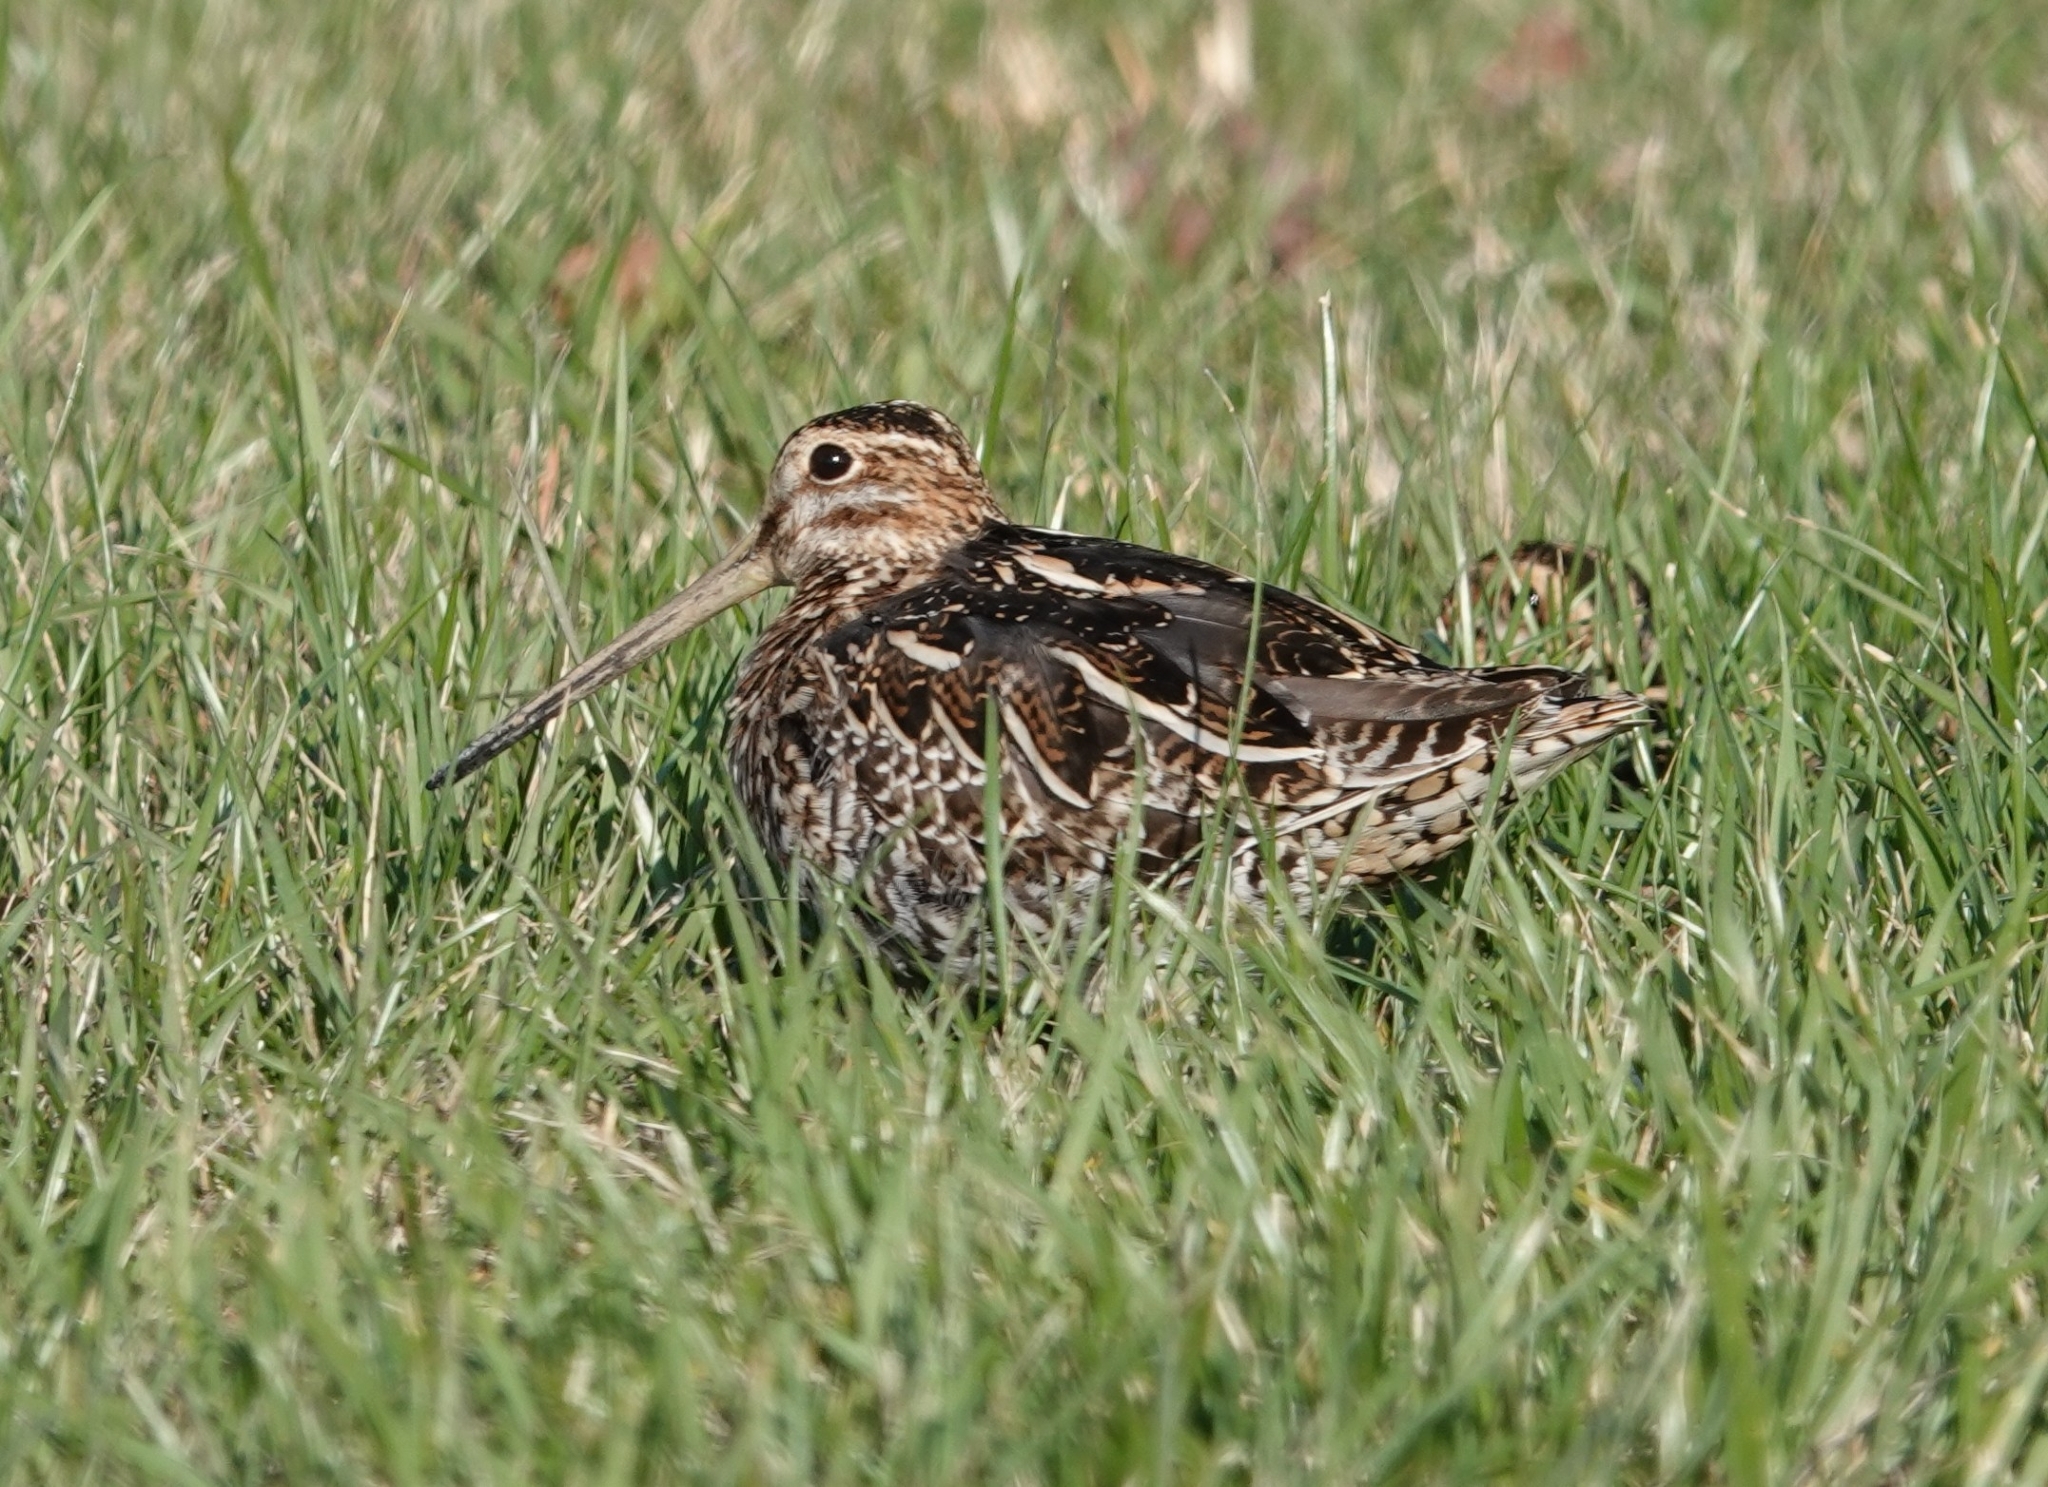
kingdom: Animalia
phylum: Chordata
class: Aves
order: Charadriiformes
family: Scolopacidae
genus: Gallinago
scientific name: Gallinago delicata
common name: Wilson's snipe
